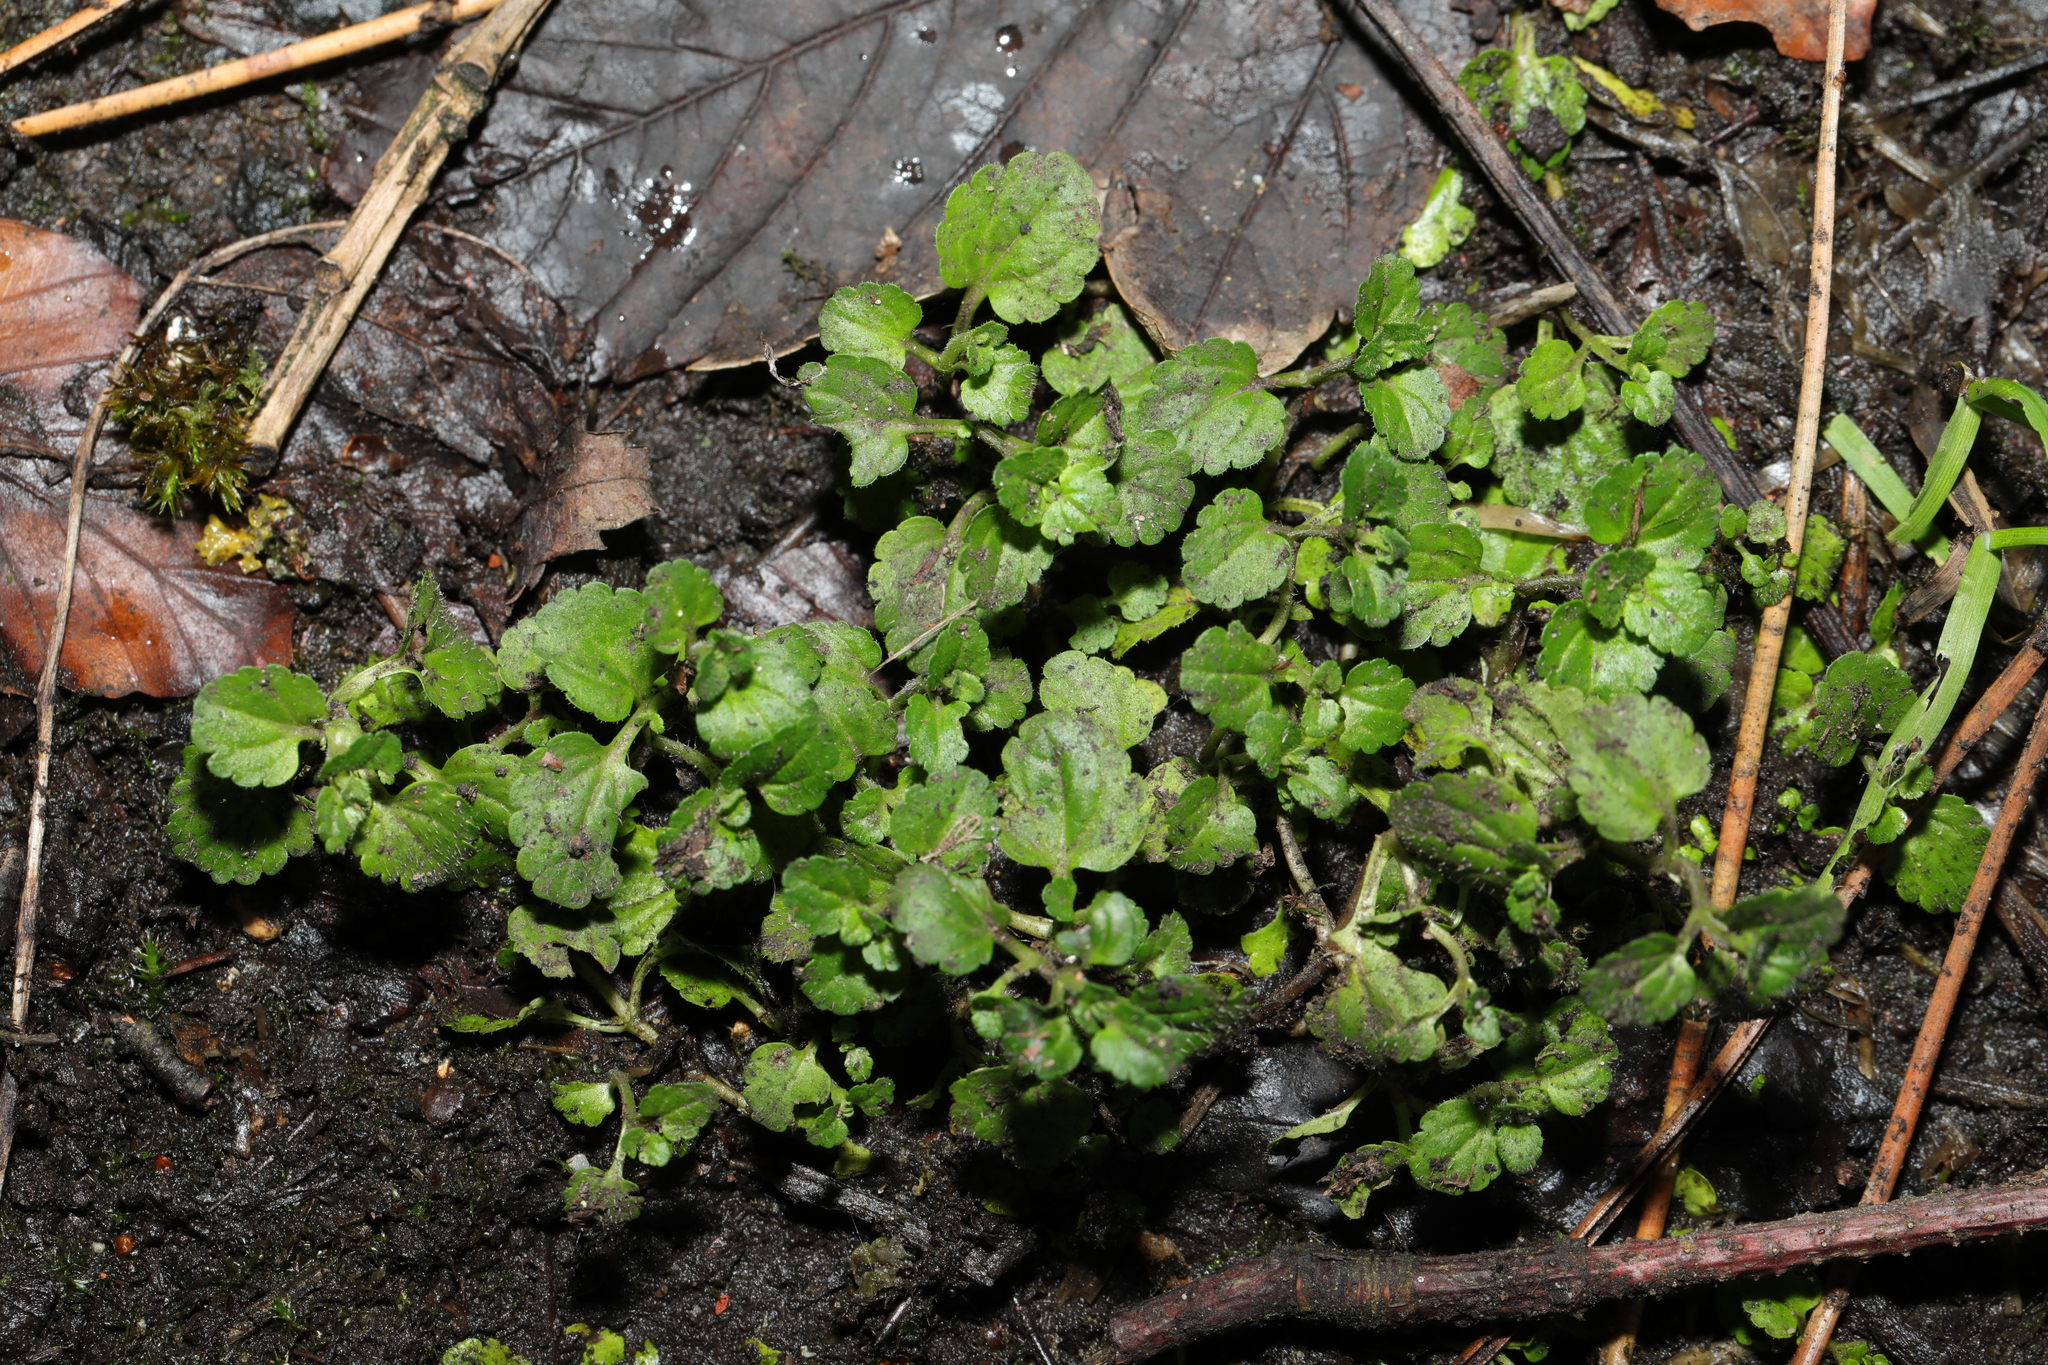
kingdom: Plantae
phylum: Tracheophyta
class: Magnoliopsida
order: Lamiales
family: Plantaginaceae
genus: Veronica
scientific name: Veronica persica
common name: Common field-speedwell
